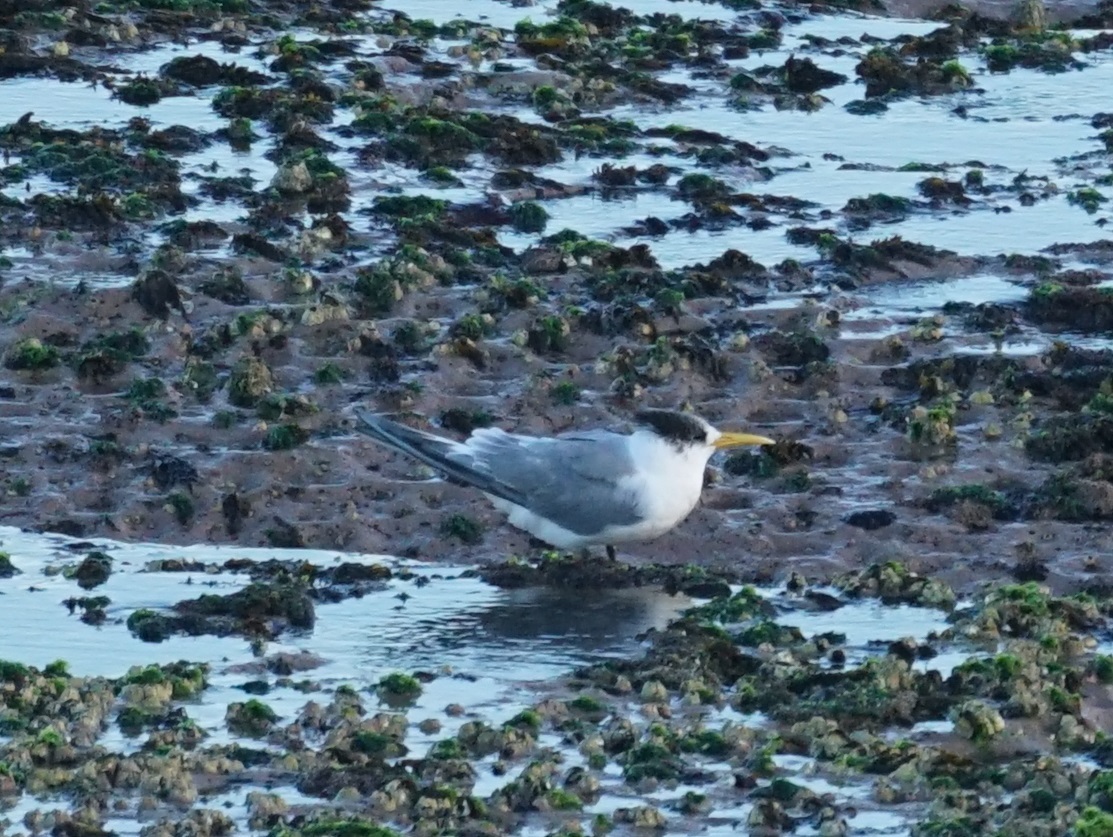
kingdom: Animalia
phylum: Chordata
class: Aves
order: Charadriiformes
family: Laridae
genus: Thalasseus
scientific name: Thalasseus bergii
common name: Greater crested tern
